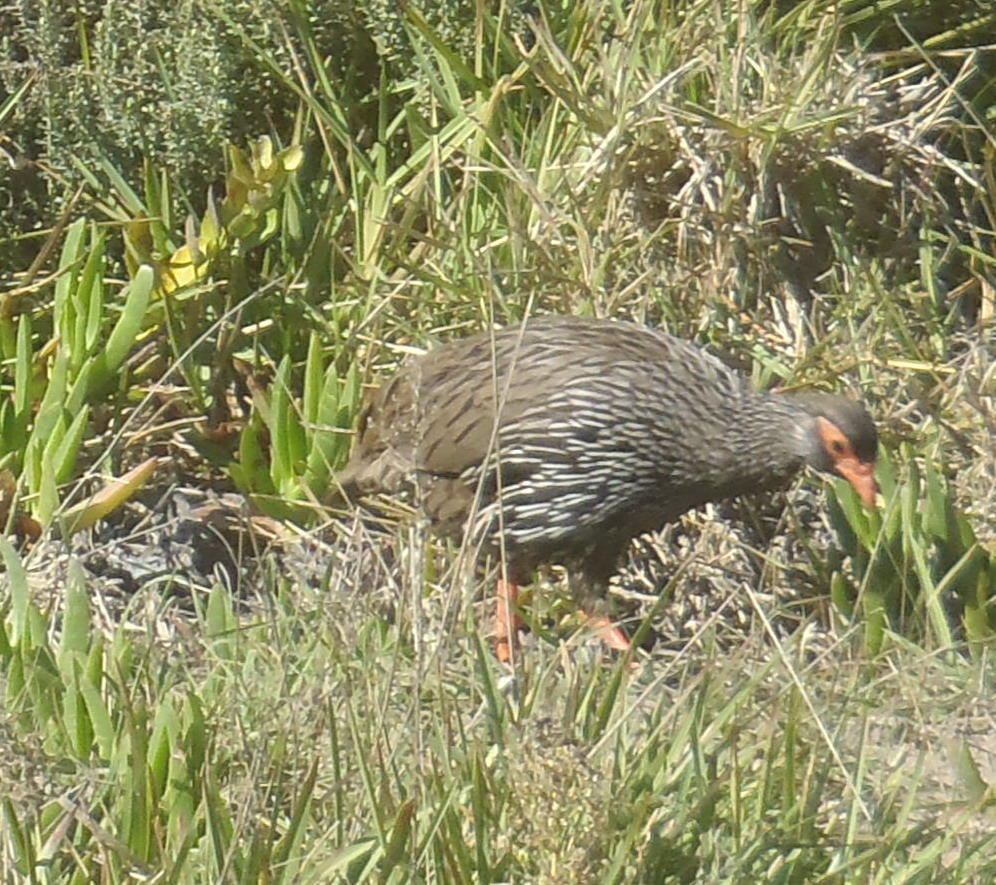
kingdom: Animalia
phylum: Chordata
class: Aves
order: Galliformes
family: Phasianidae
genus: Pternistis
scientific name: Pternistis afer
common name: Red-necked spurfowl
